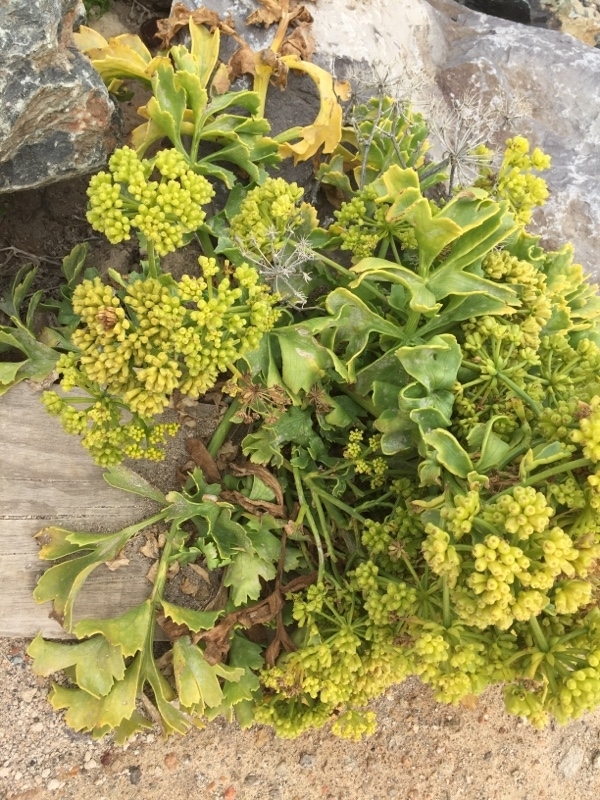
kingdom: Plantae
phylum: Tracheophyta
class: Magnoliopsida
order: Apiales
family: Apiaceae
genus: Astydamia
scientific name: Astydamia latifolia
